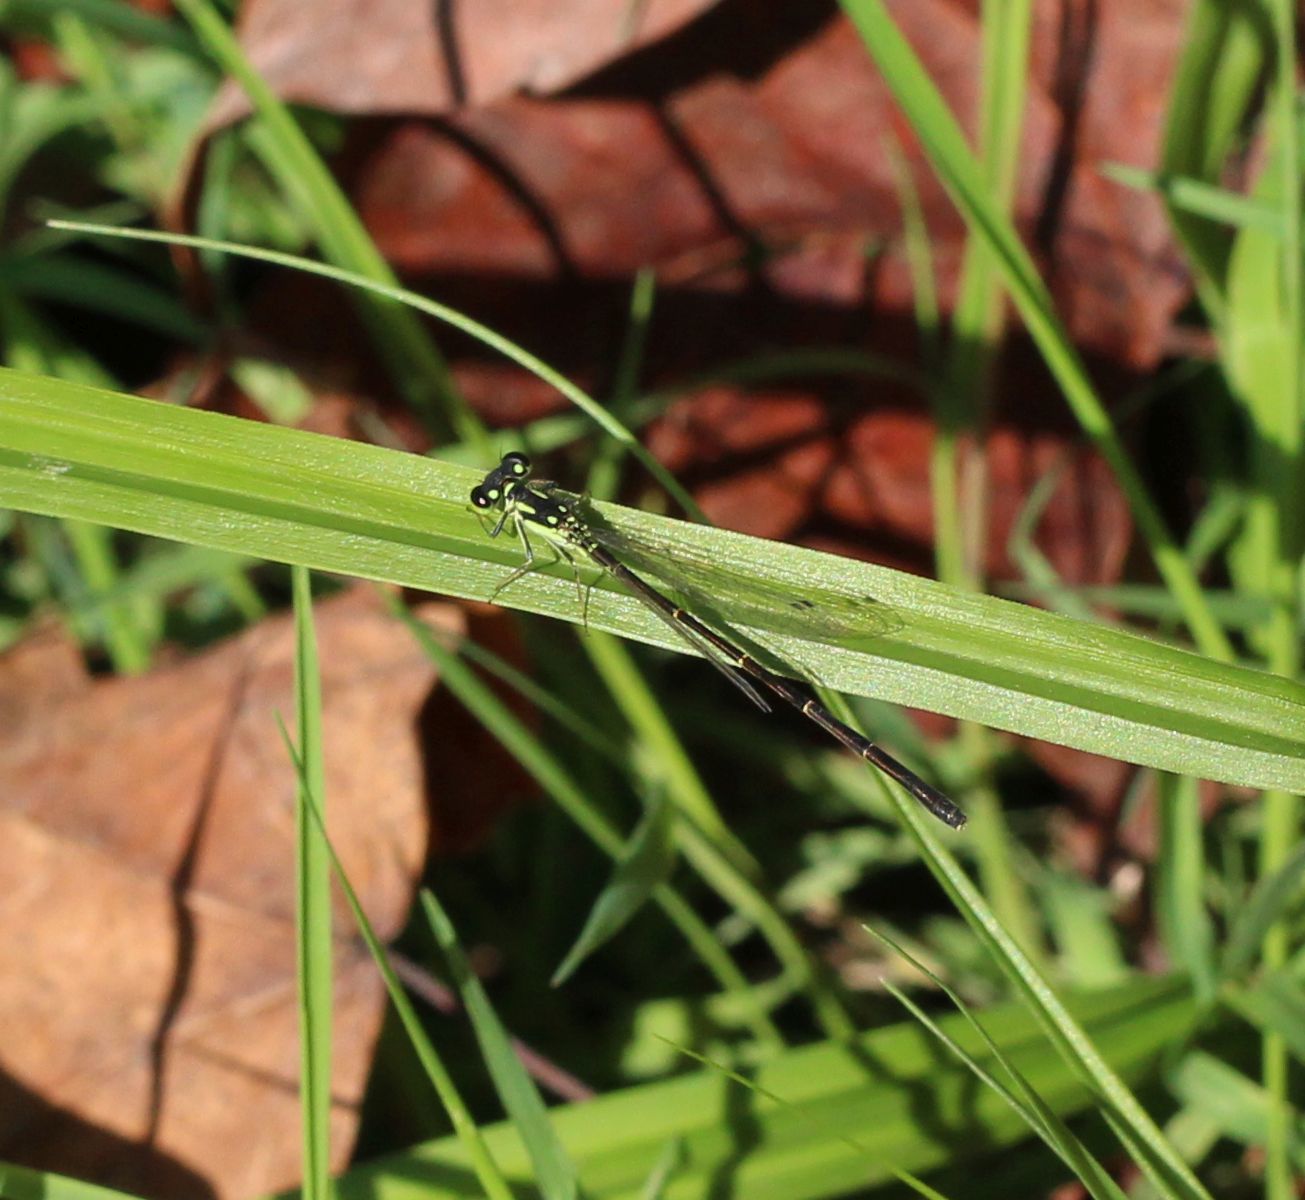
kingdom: Animalia
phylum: Arthropoda
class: Insecta
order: Odonata
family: Coenagrionidae
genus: Ischnura
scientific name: Ischnura posita
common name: Fragile forktail
